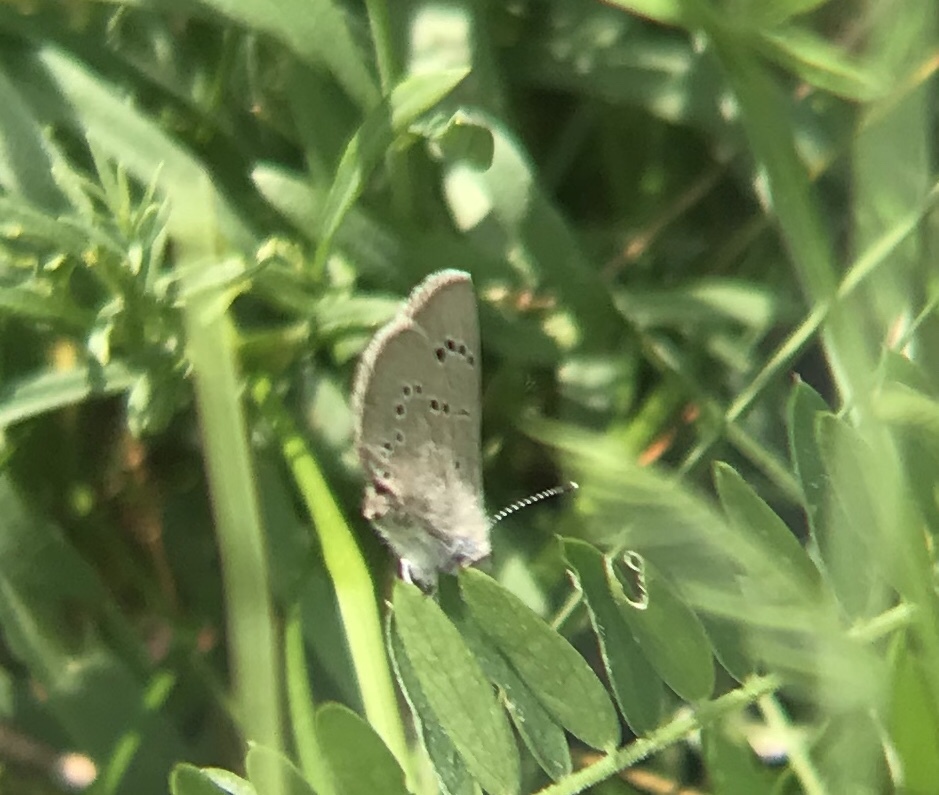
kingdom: Animalia
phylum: Arthropoda
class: Insecta
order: Lepidoptera
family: Lycaenidae
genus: Glaucopsyche
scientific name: Glaucopsyche lygdamus
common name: Silvery blue
